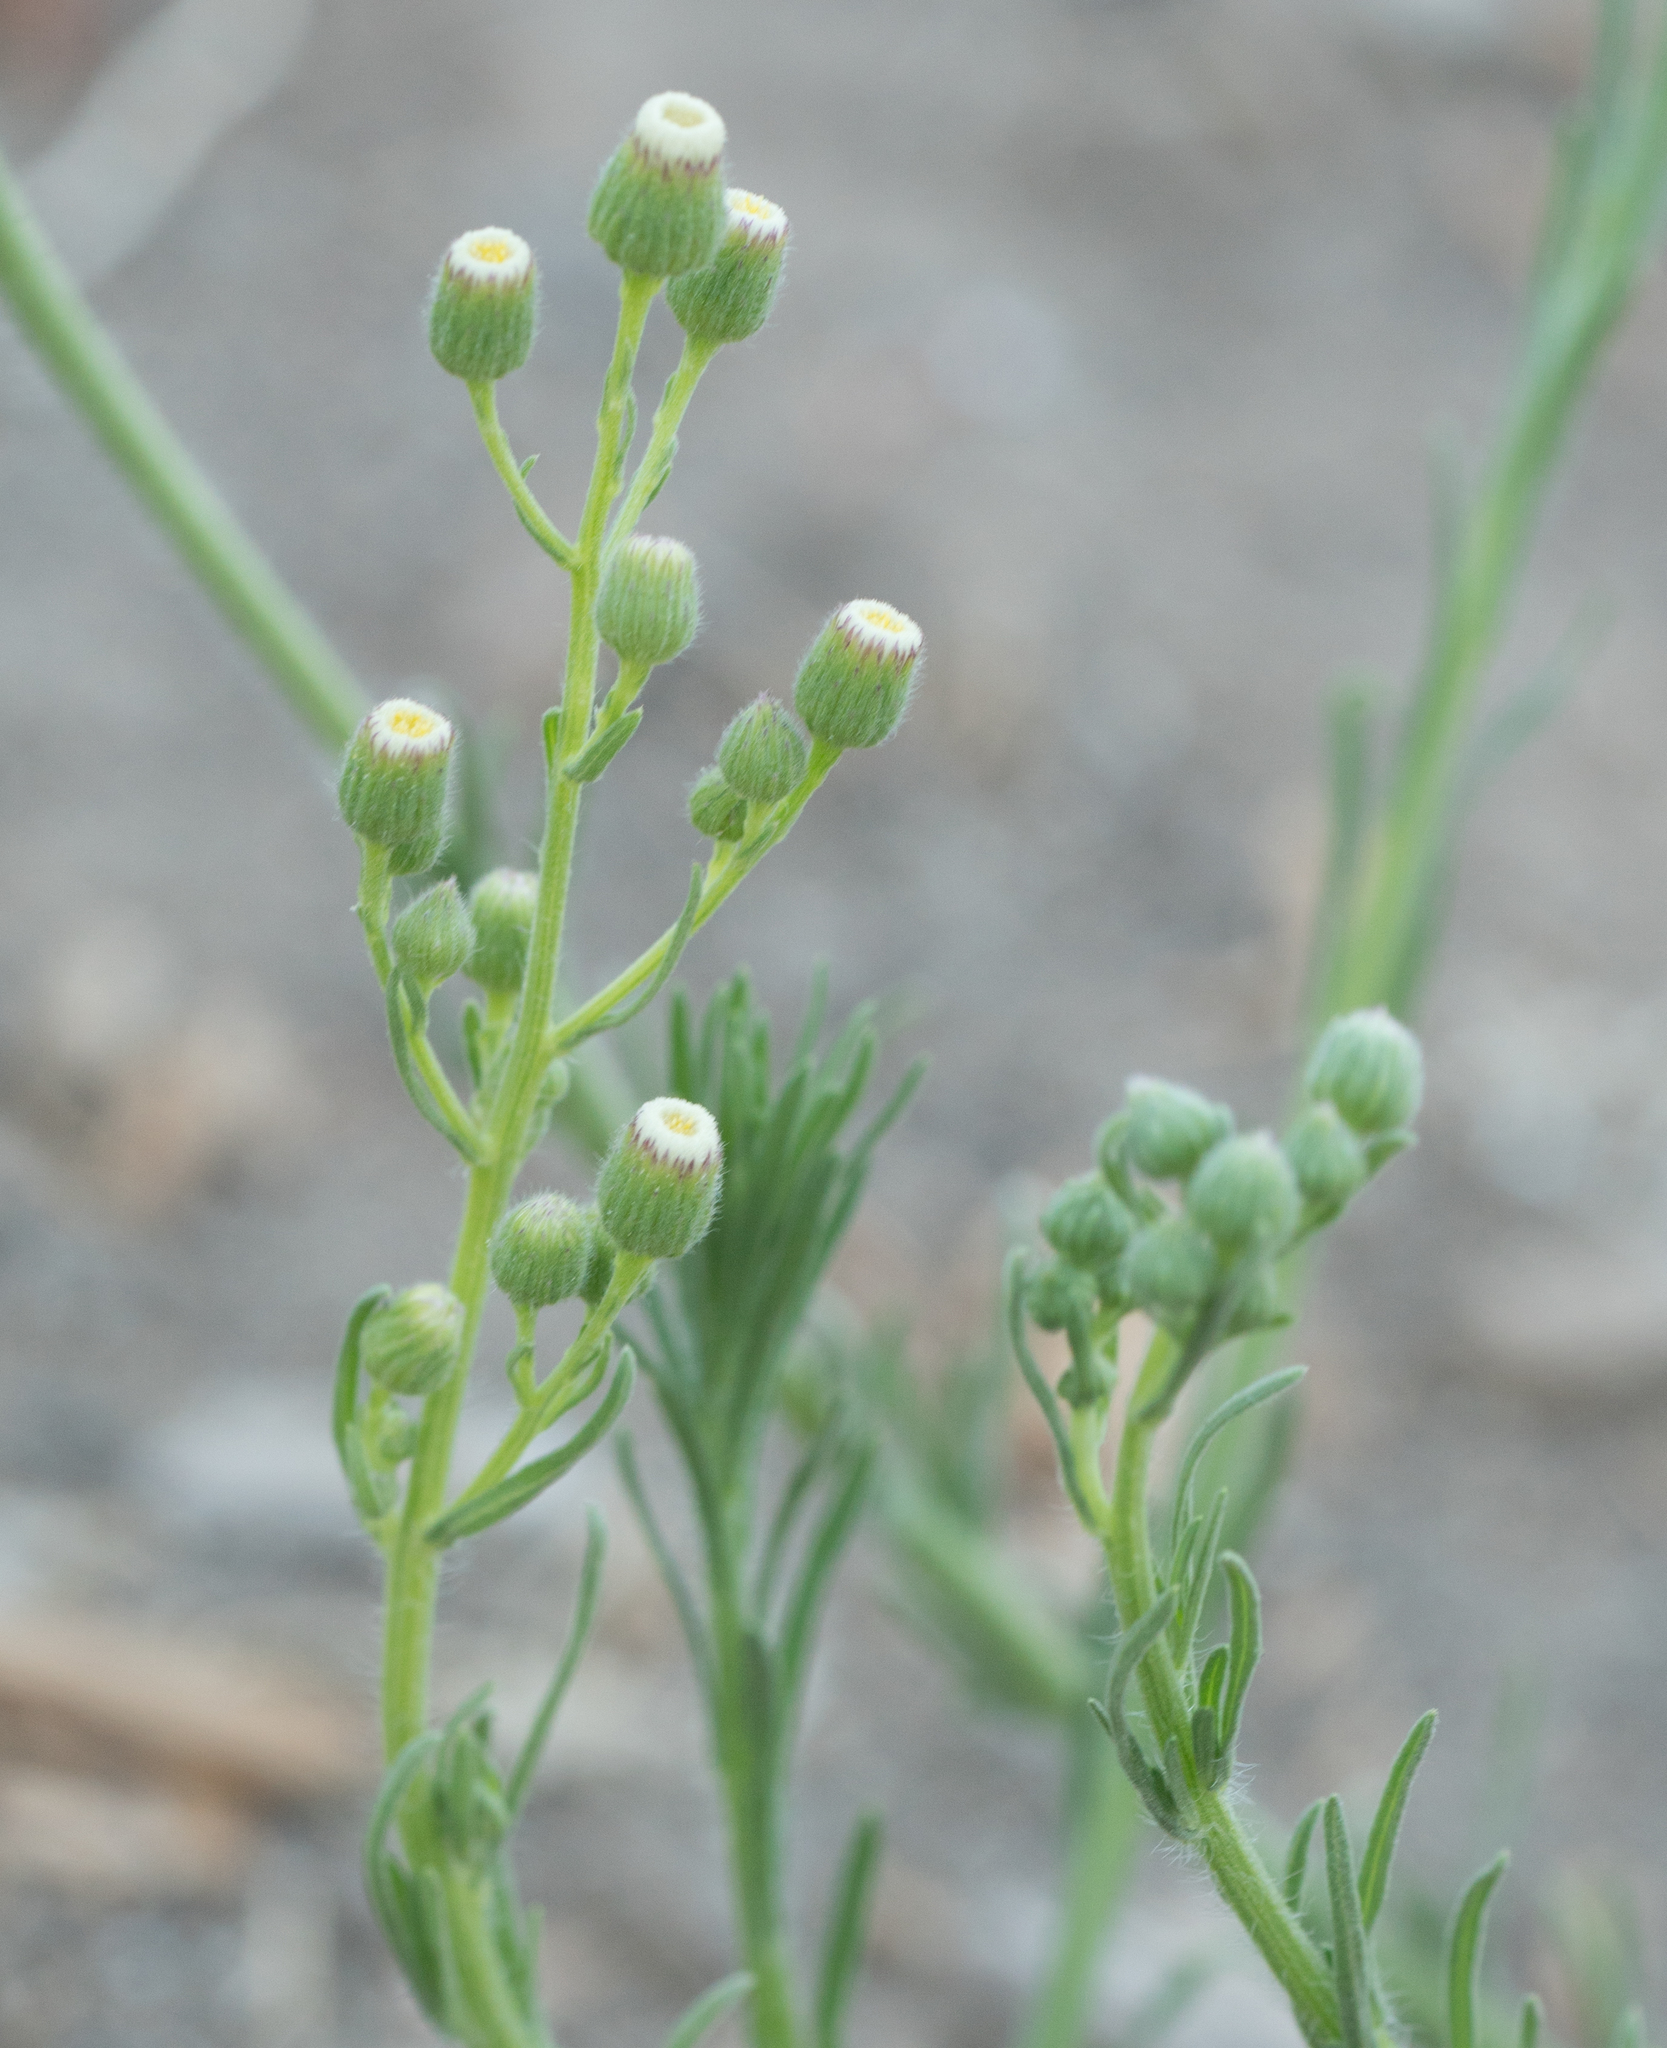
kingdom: Plantae
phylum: Tracheophyta
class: Magnoliopsida
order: Asterales
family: Asteraceae
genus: Erigeron
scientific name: Erigeron bonariensis
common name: Argentine fleabane
